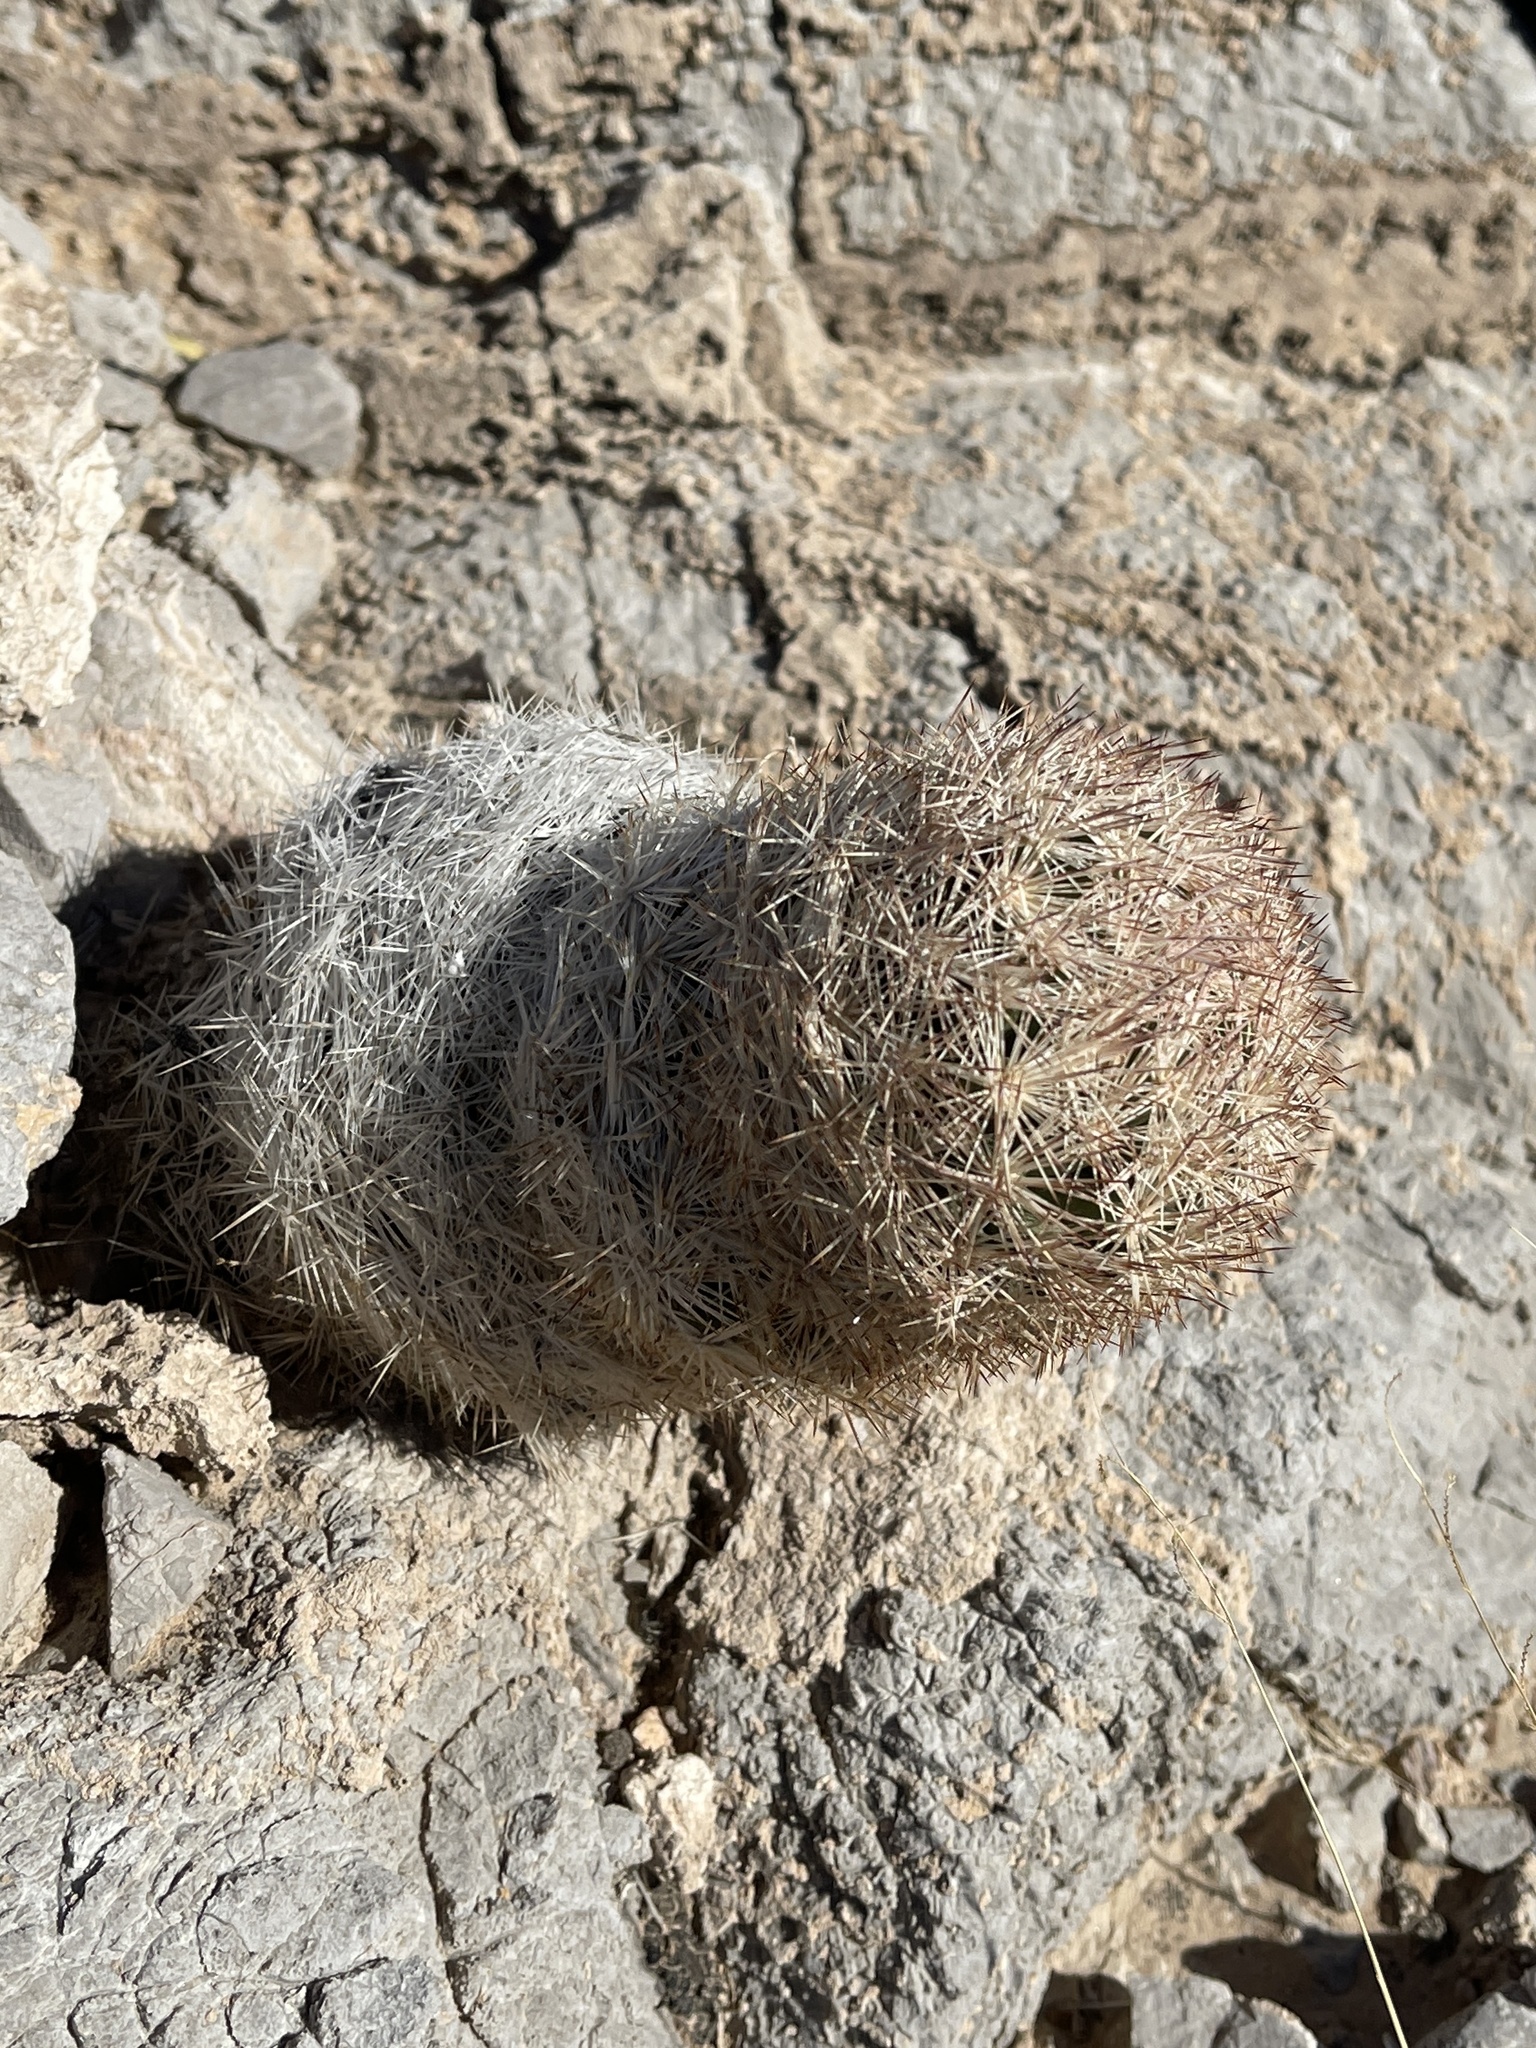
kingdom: Plantae
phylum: Tracheophyta
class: Magnoliopsida
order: Caryophyllales
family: Cactaceae
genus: Pelecyphora
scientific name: Pelecyphora dasyacantha
